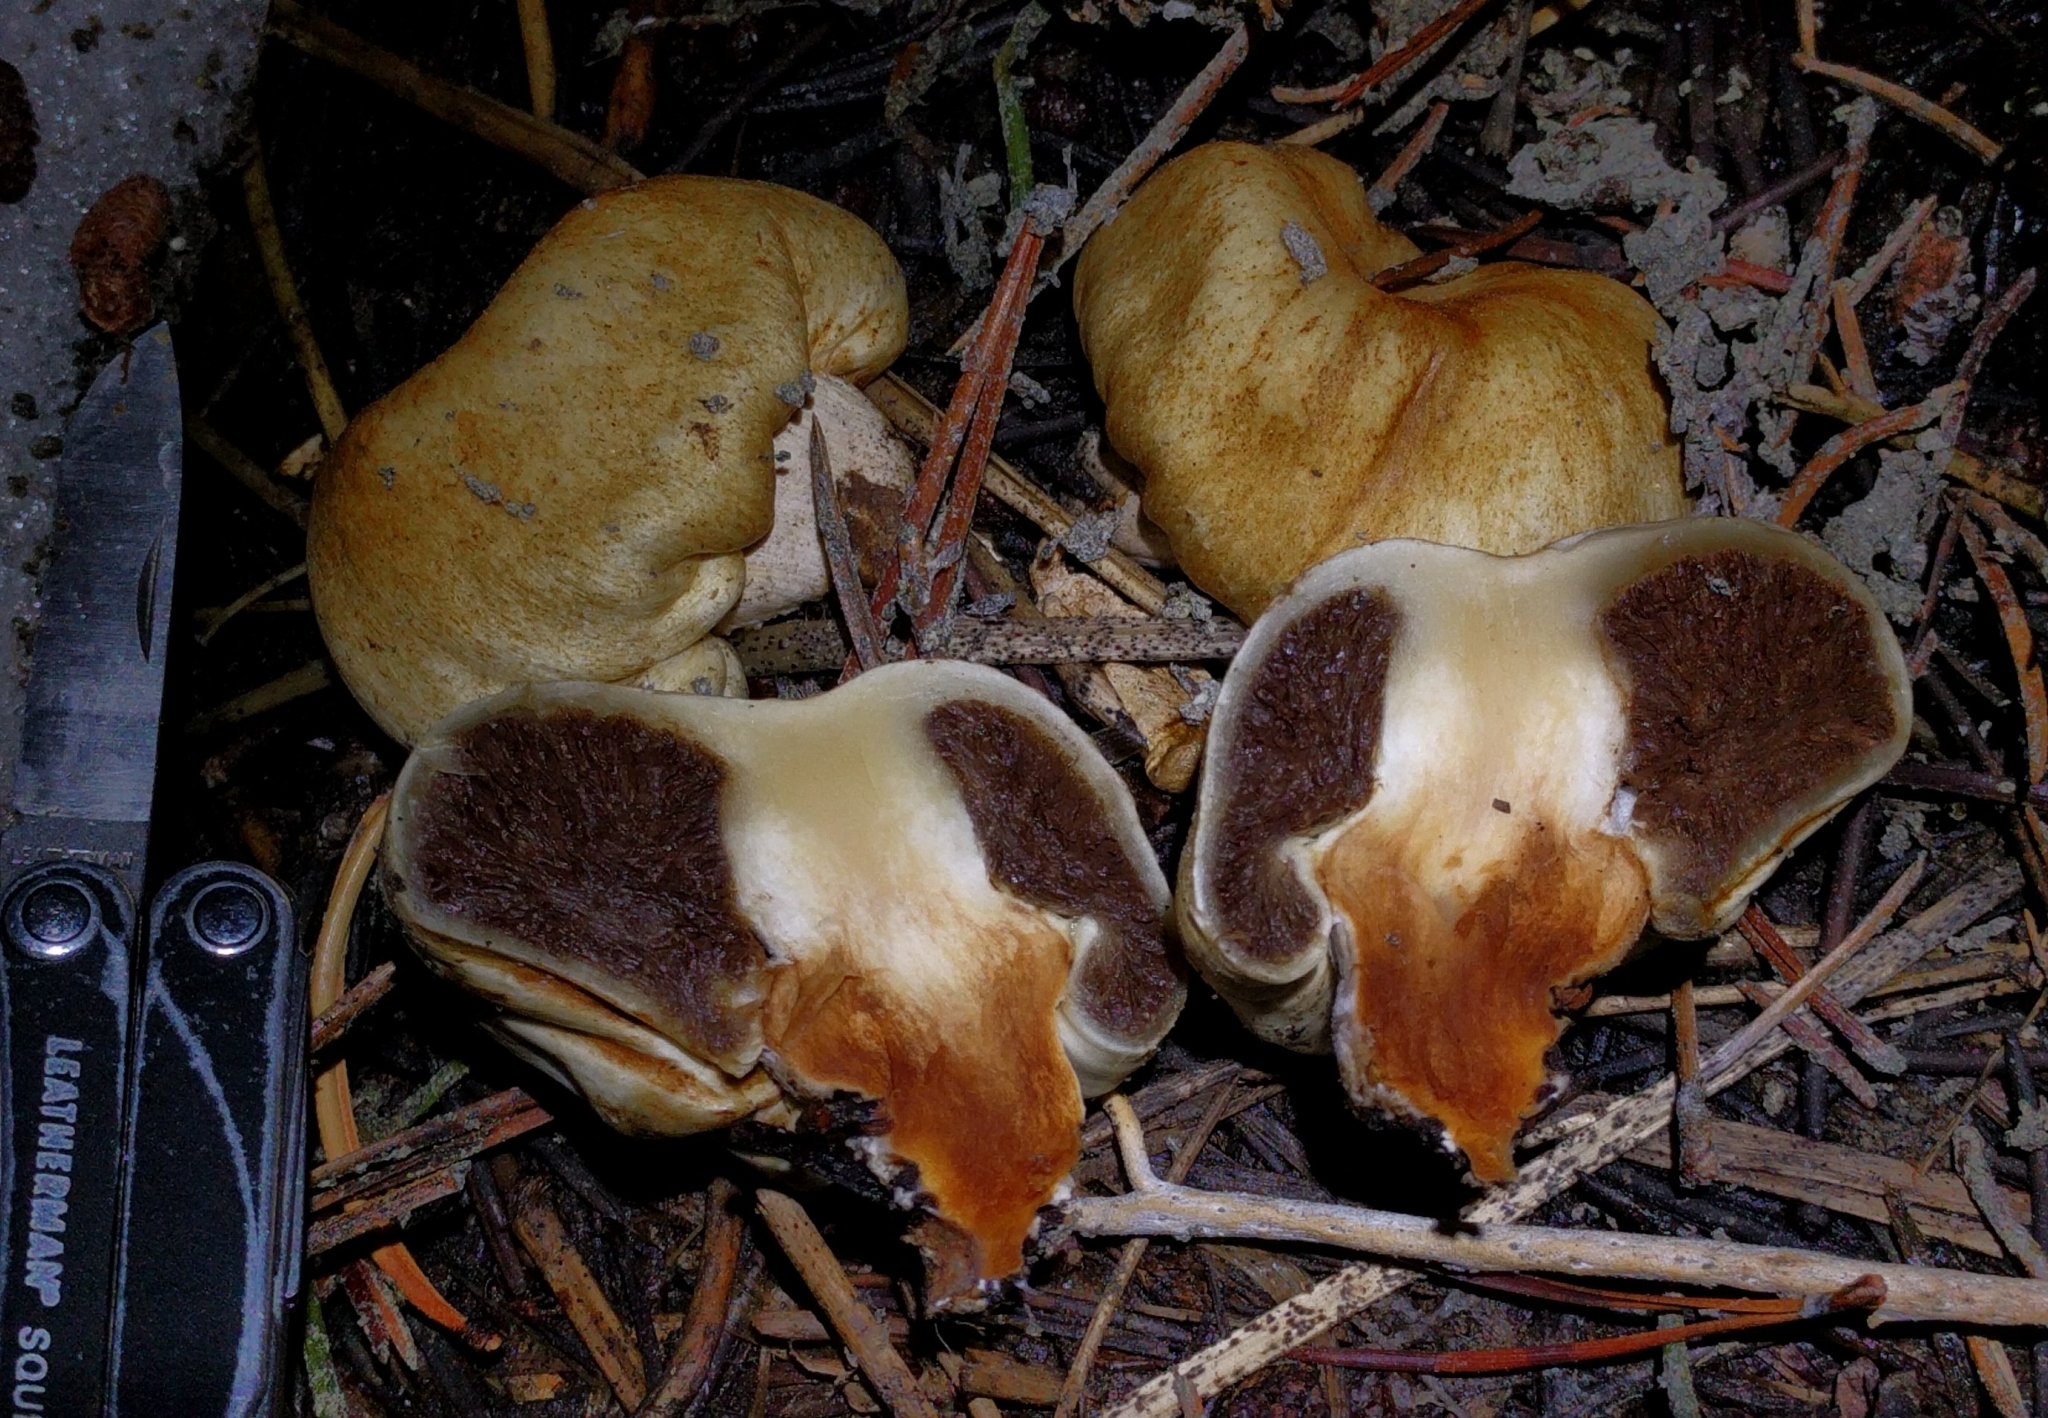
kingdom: Fungi
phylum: Basidiomycota
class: Agaricomycetes
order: Agaricales
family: Strophariaceae
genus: Pholiota
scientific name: Pholiota nubigena
